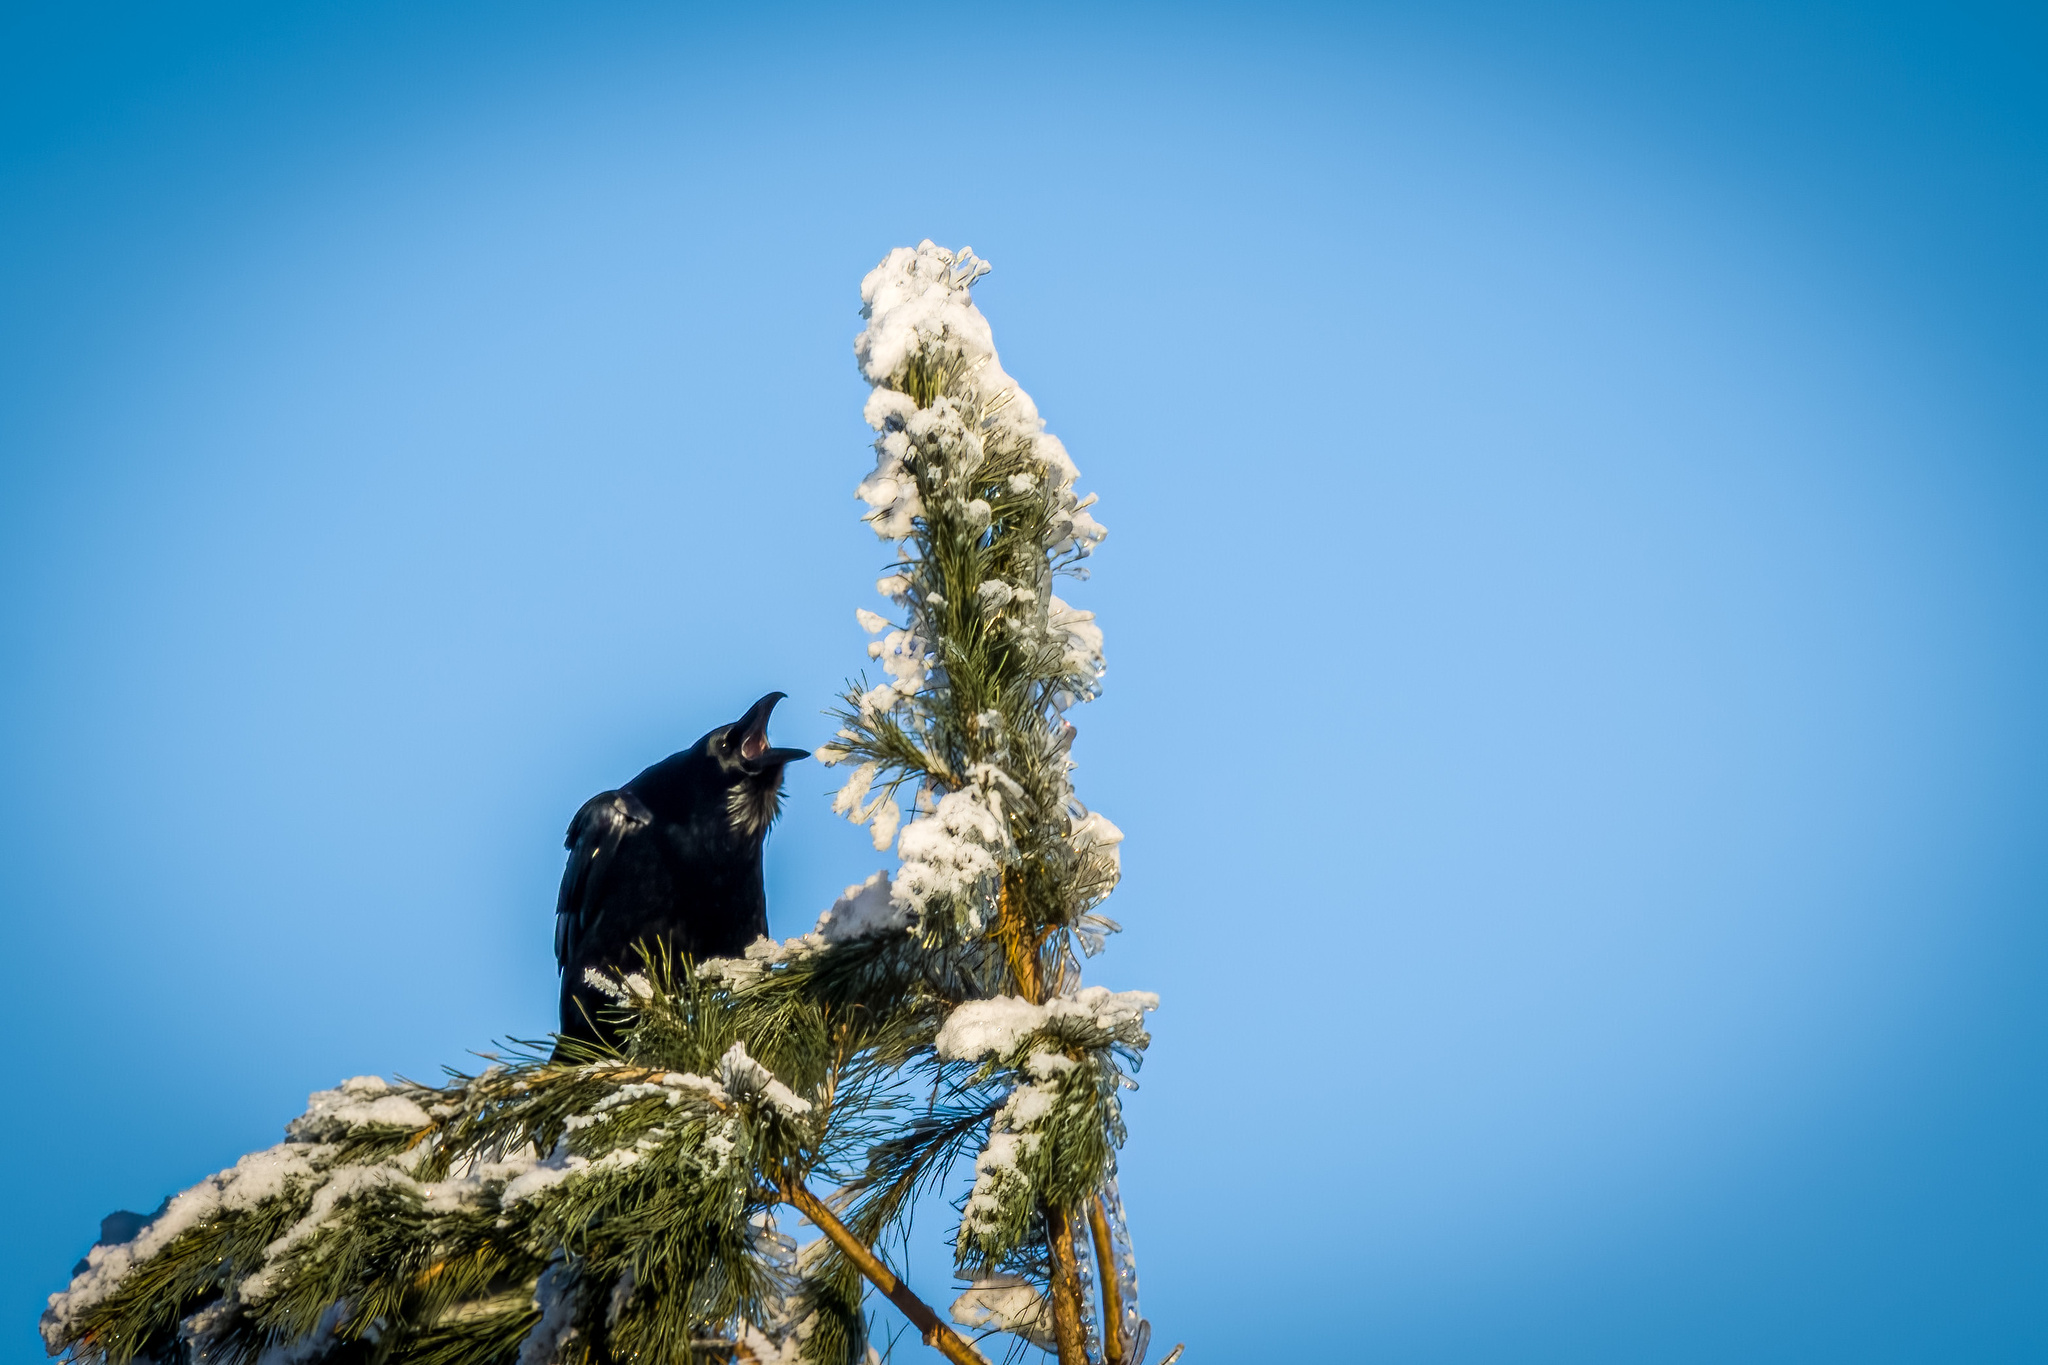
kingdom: Animalia
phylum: Chordata
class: Aves
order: Passeriformes
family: Corvidae
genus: Corvus
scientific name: Corvus corax
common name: Common raven
